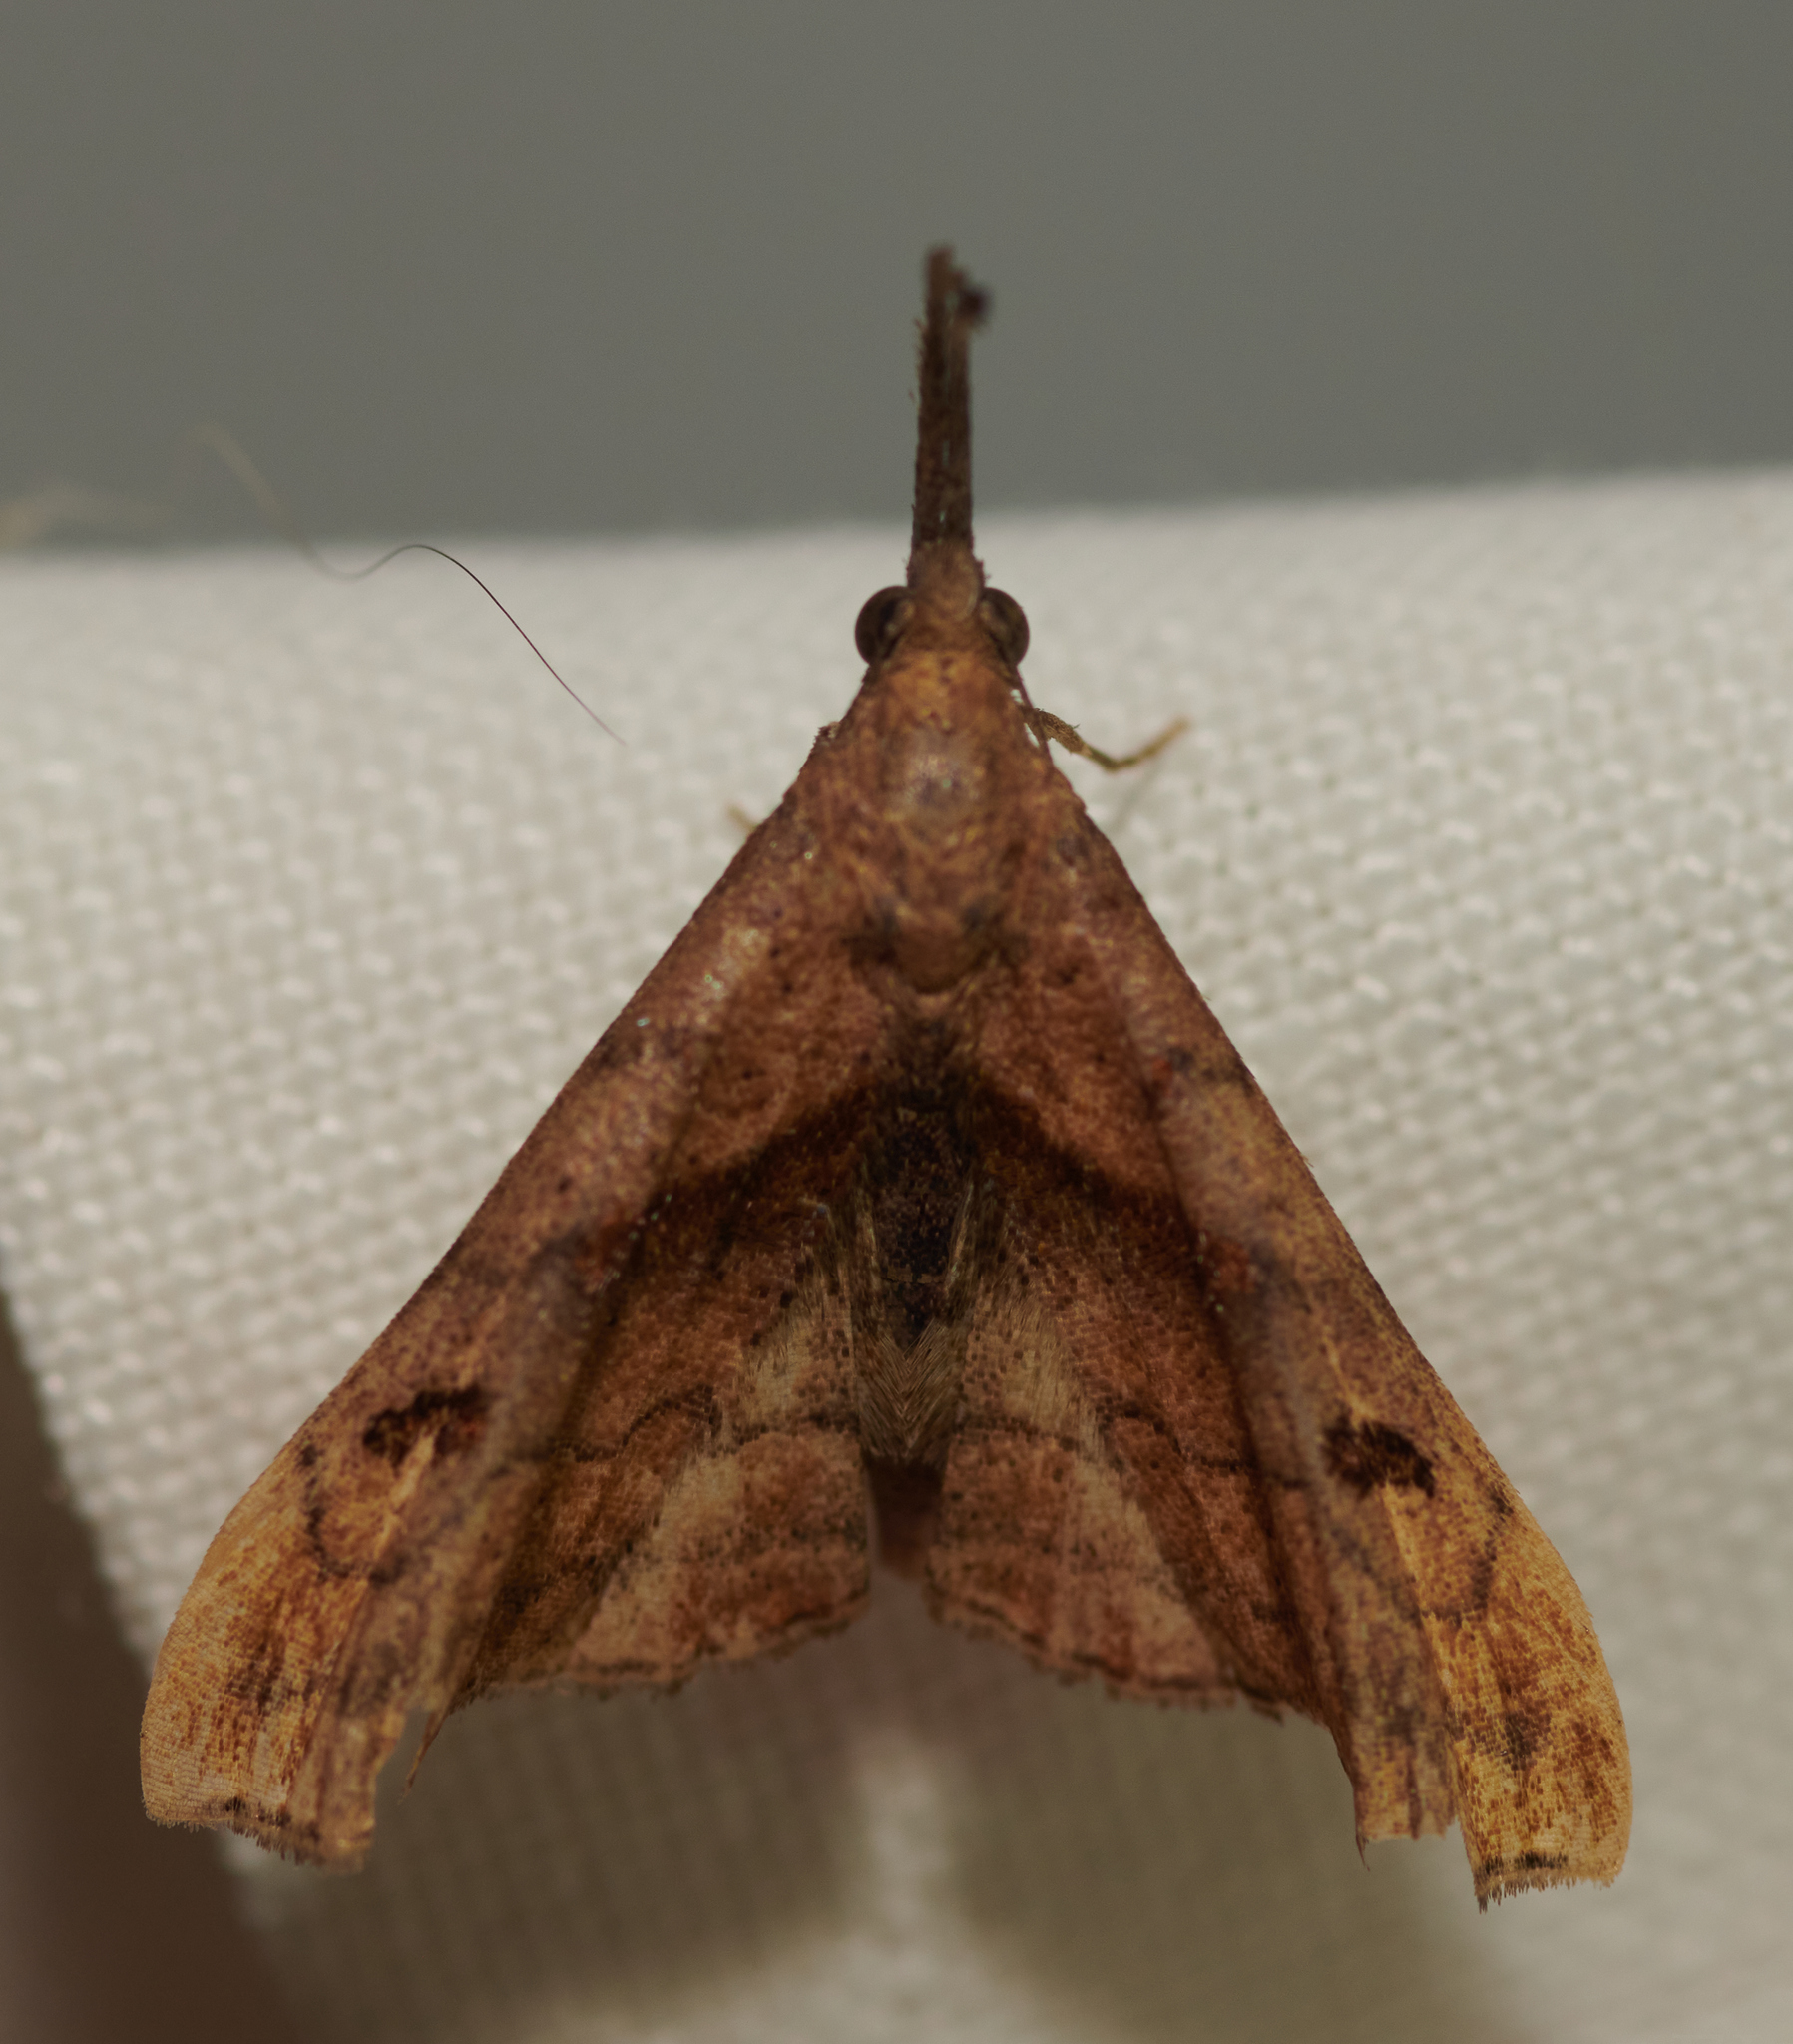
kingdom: Animalia
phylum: Arthropoda
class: Insecta
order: Lepidoptera
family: Erebidae
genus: Palthis
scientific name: Palthis angulalis
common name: Dark-spotted palthis moth
